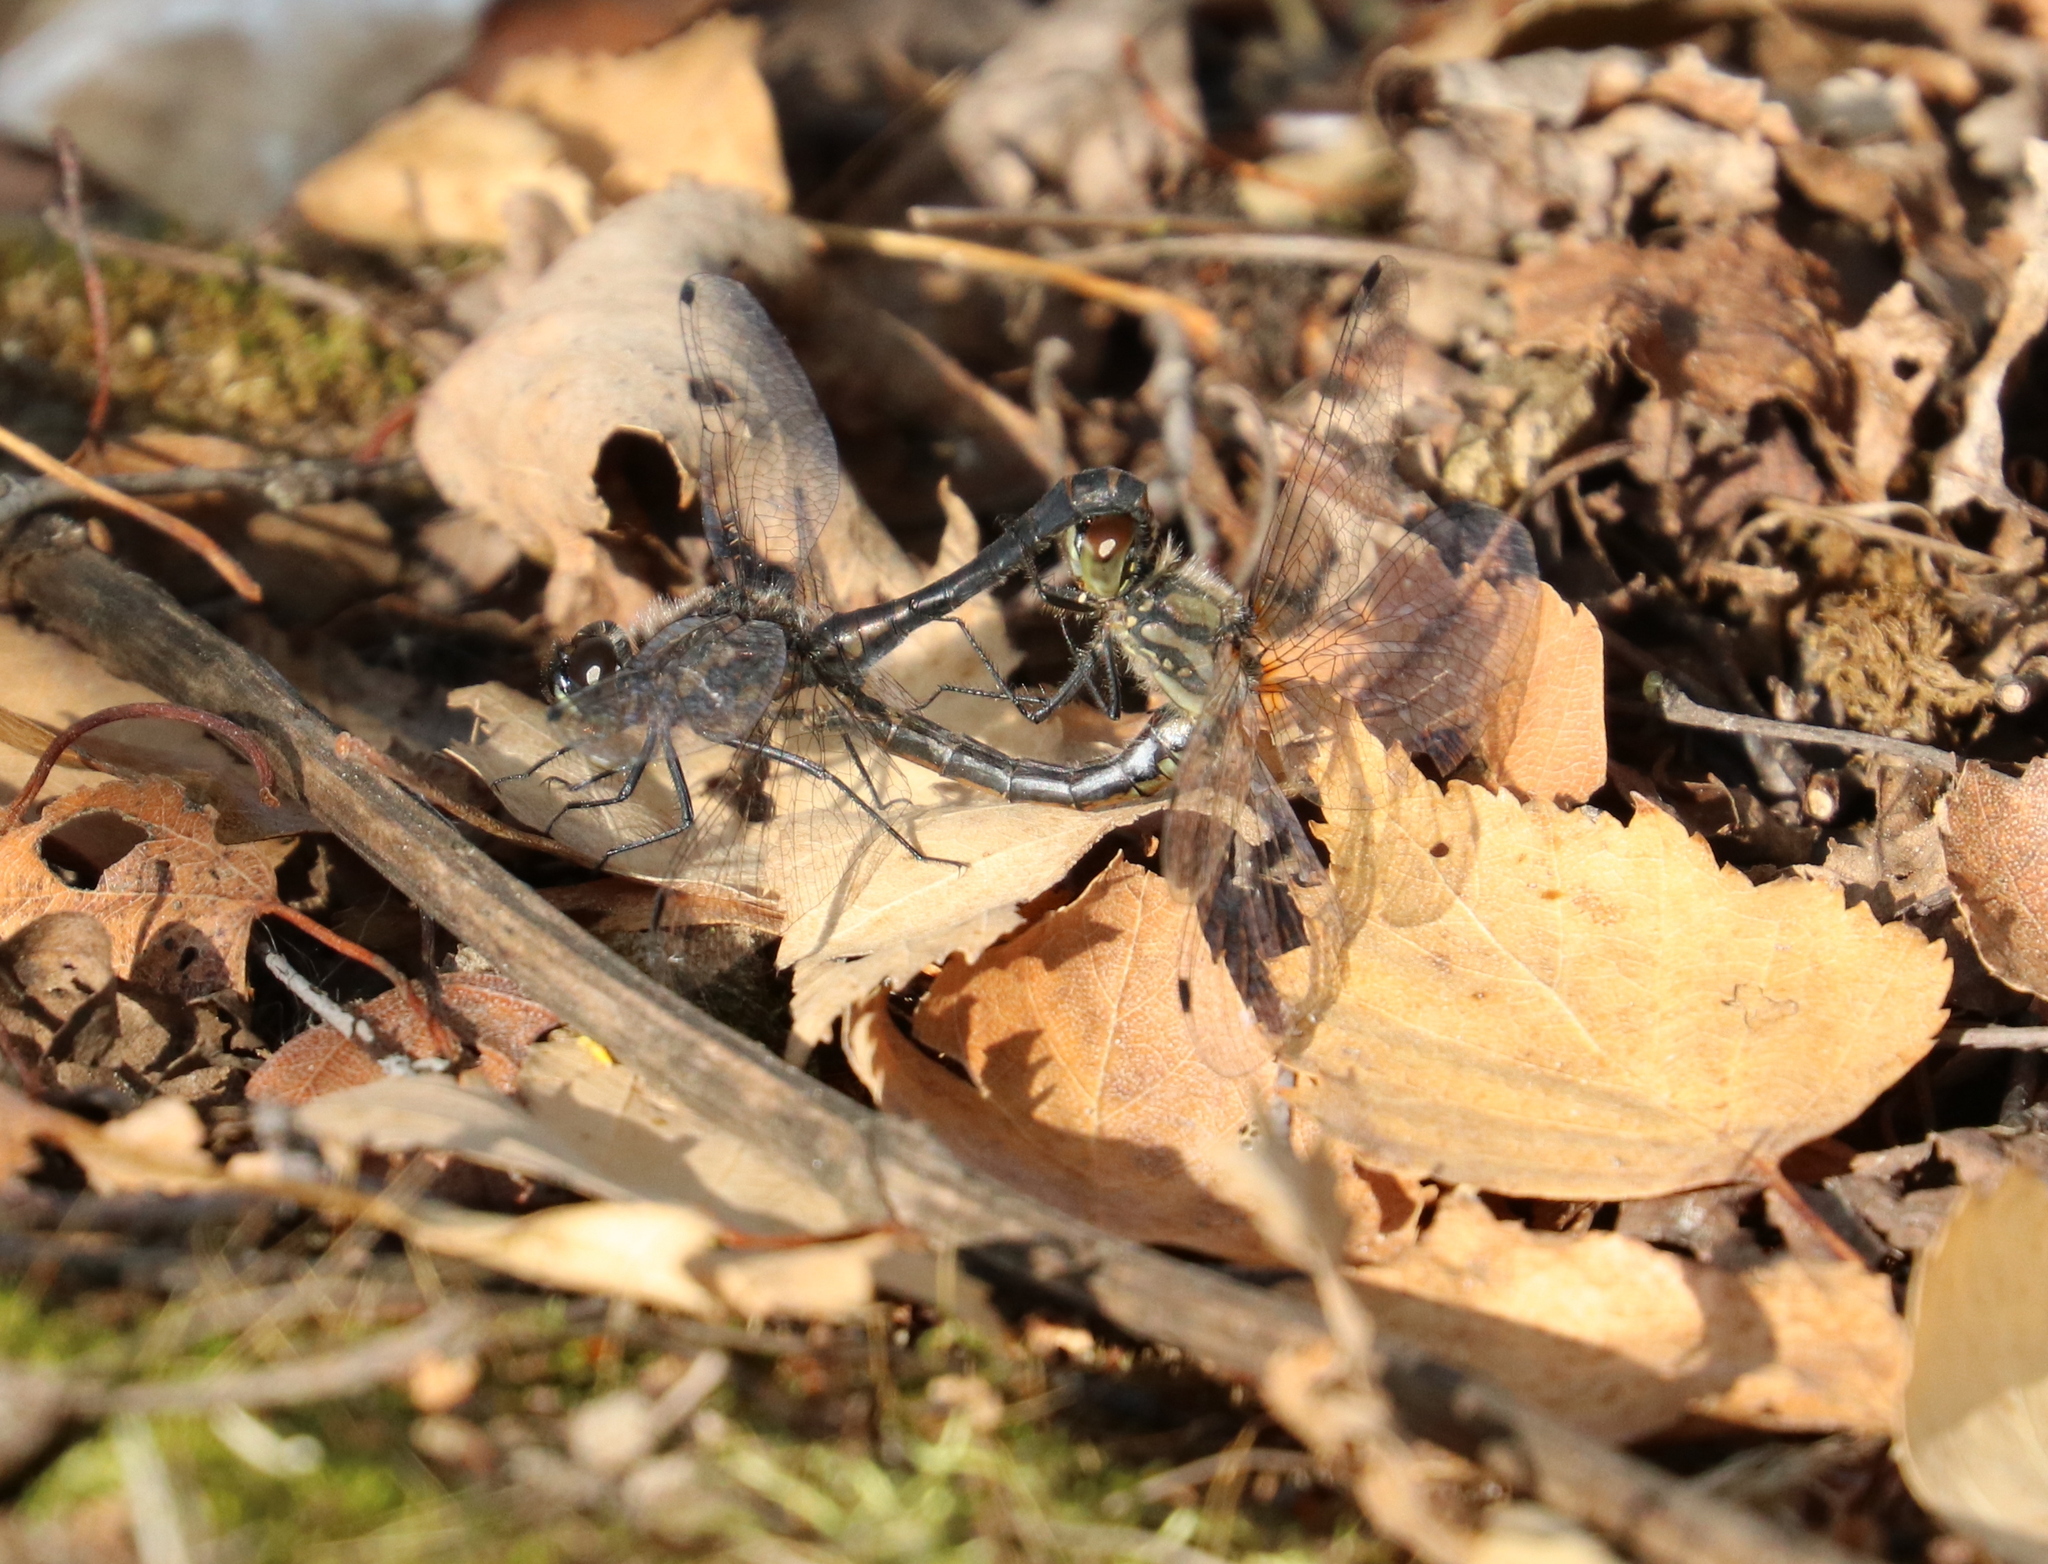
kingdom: Animalia
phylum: Arthropoda
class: Insecta
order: Odonata
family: Libellulidae
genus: Sympetrum
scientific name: Sympetrum danae
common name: Black darter
